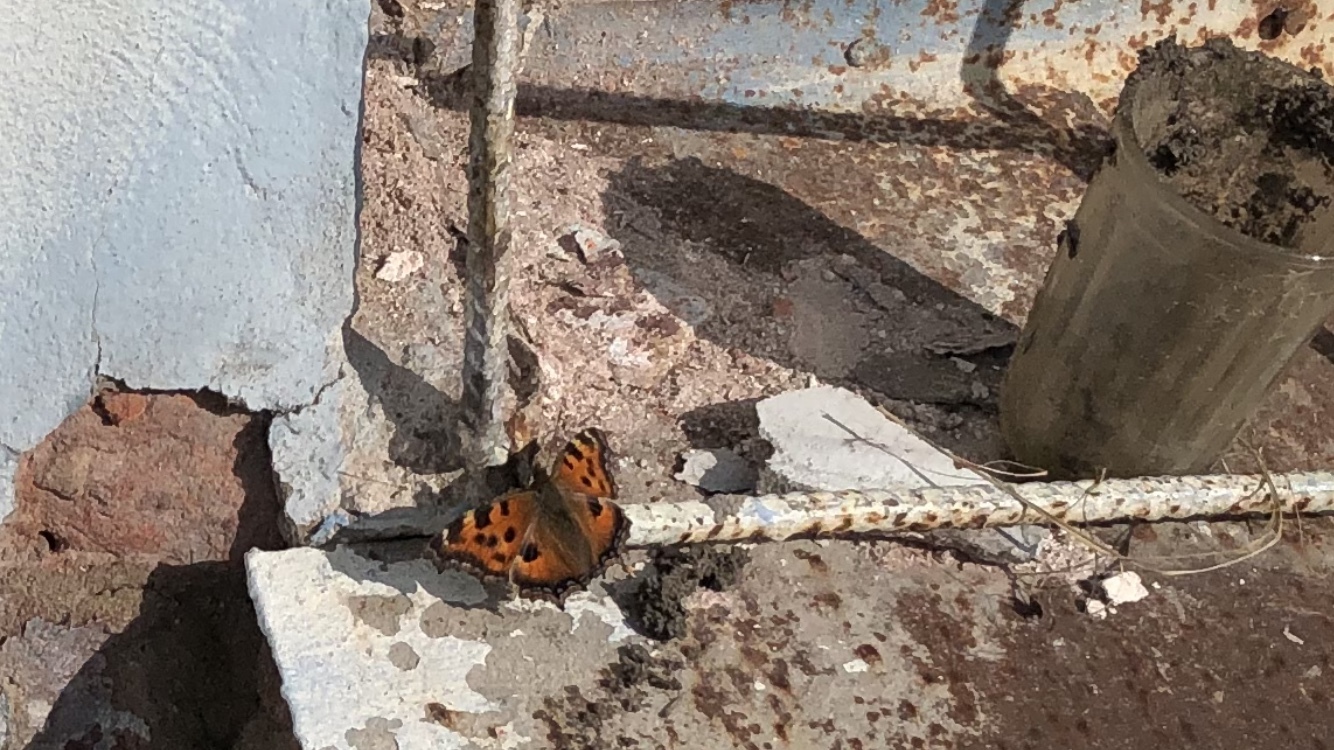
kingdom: Animalia
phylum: Arthropoda
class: Insecta
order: Lepidoptera
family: Nymphalidae
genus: Nymphalis
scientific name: Nymphalis xanthomelas
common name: Scarce tortoiseshell
